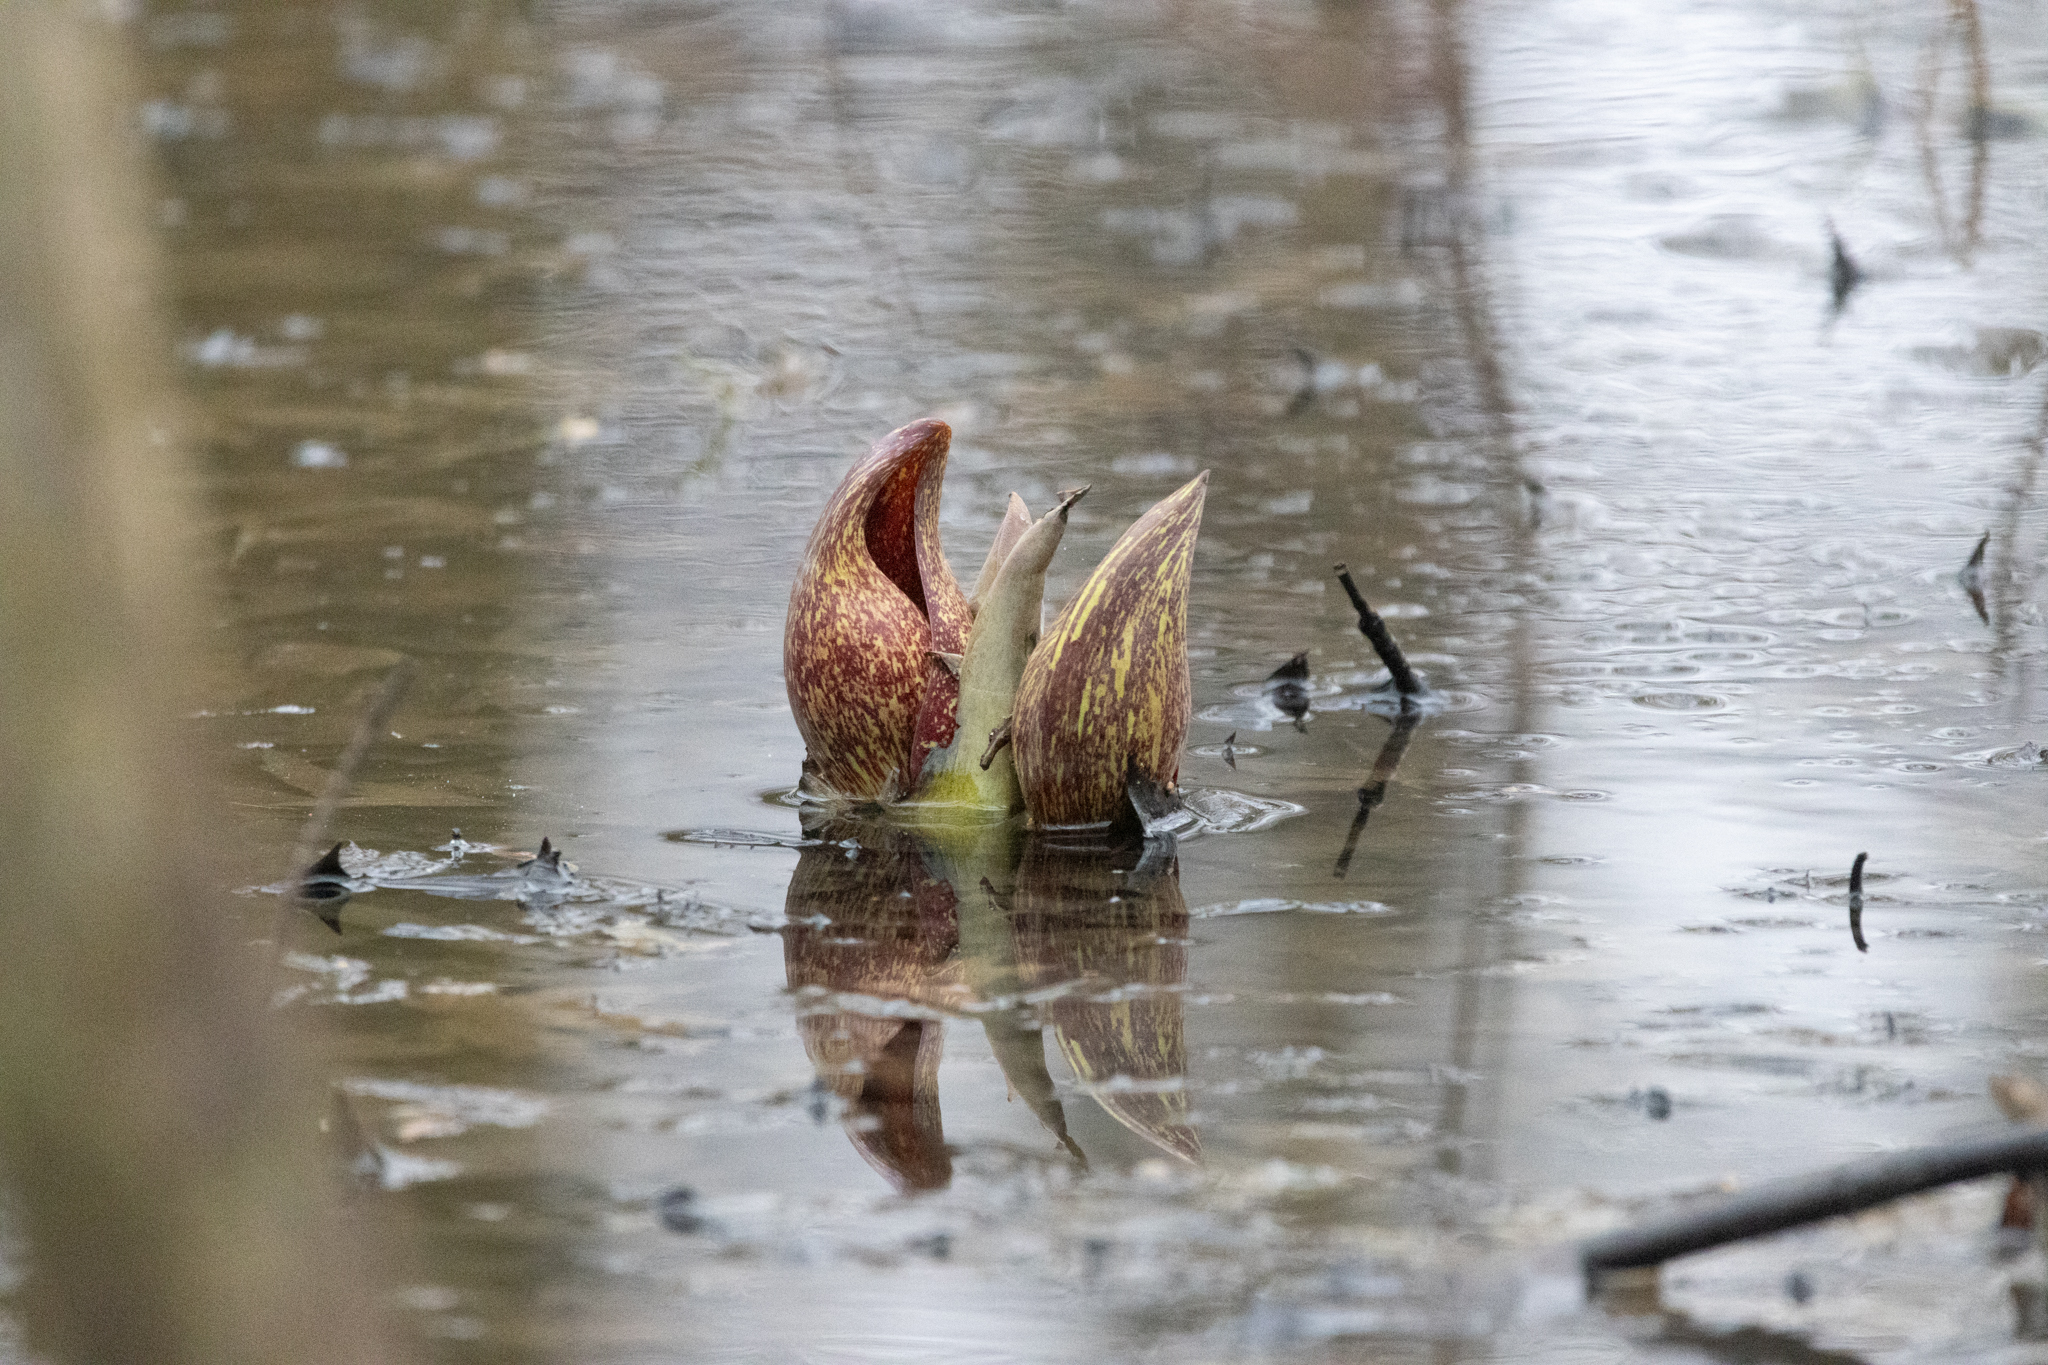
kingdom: Plantae
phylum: Tracheophyta
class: Liliopsida
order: Alismatales
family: Araceae
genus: Symplocarpus
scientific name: Symplocarpus foetidus
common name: Eastern skunk cabbage
